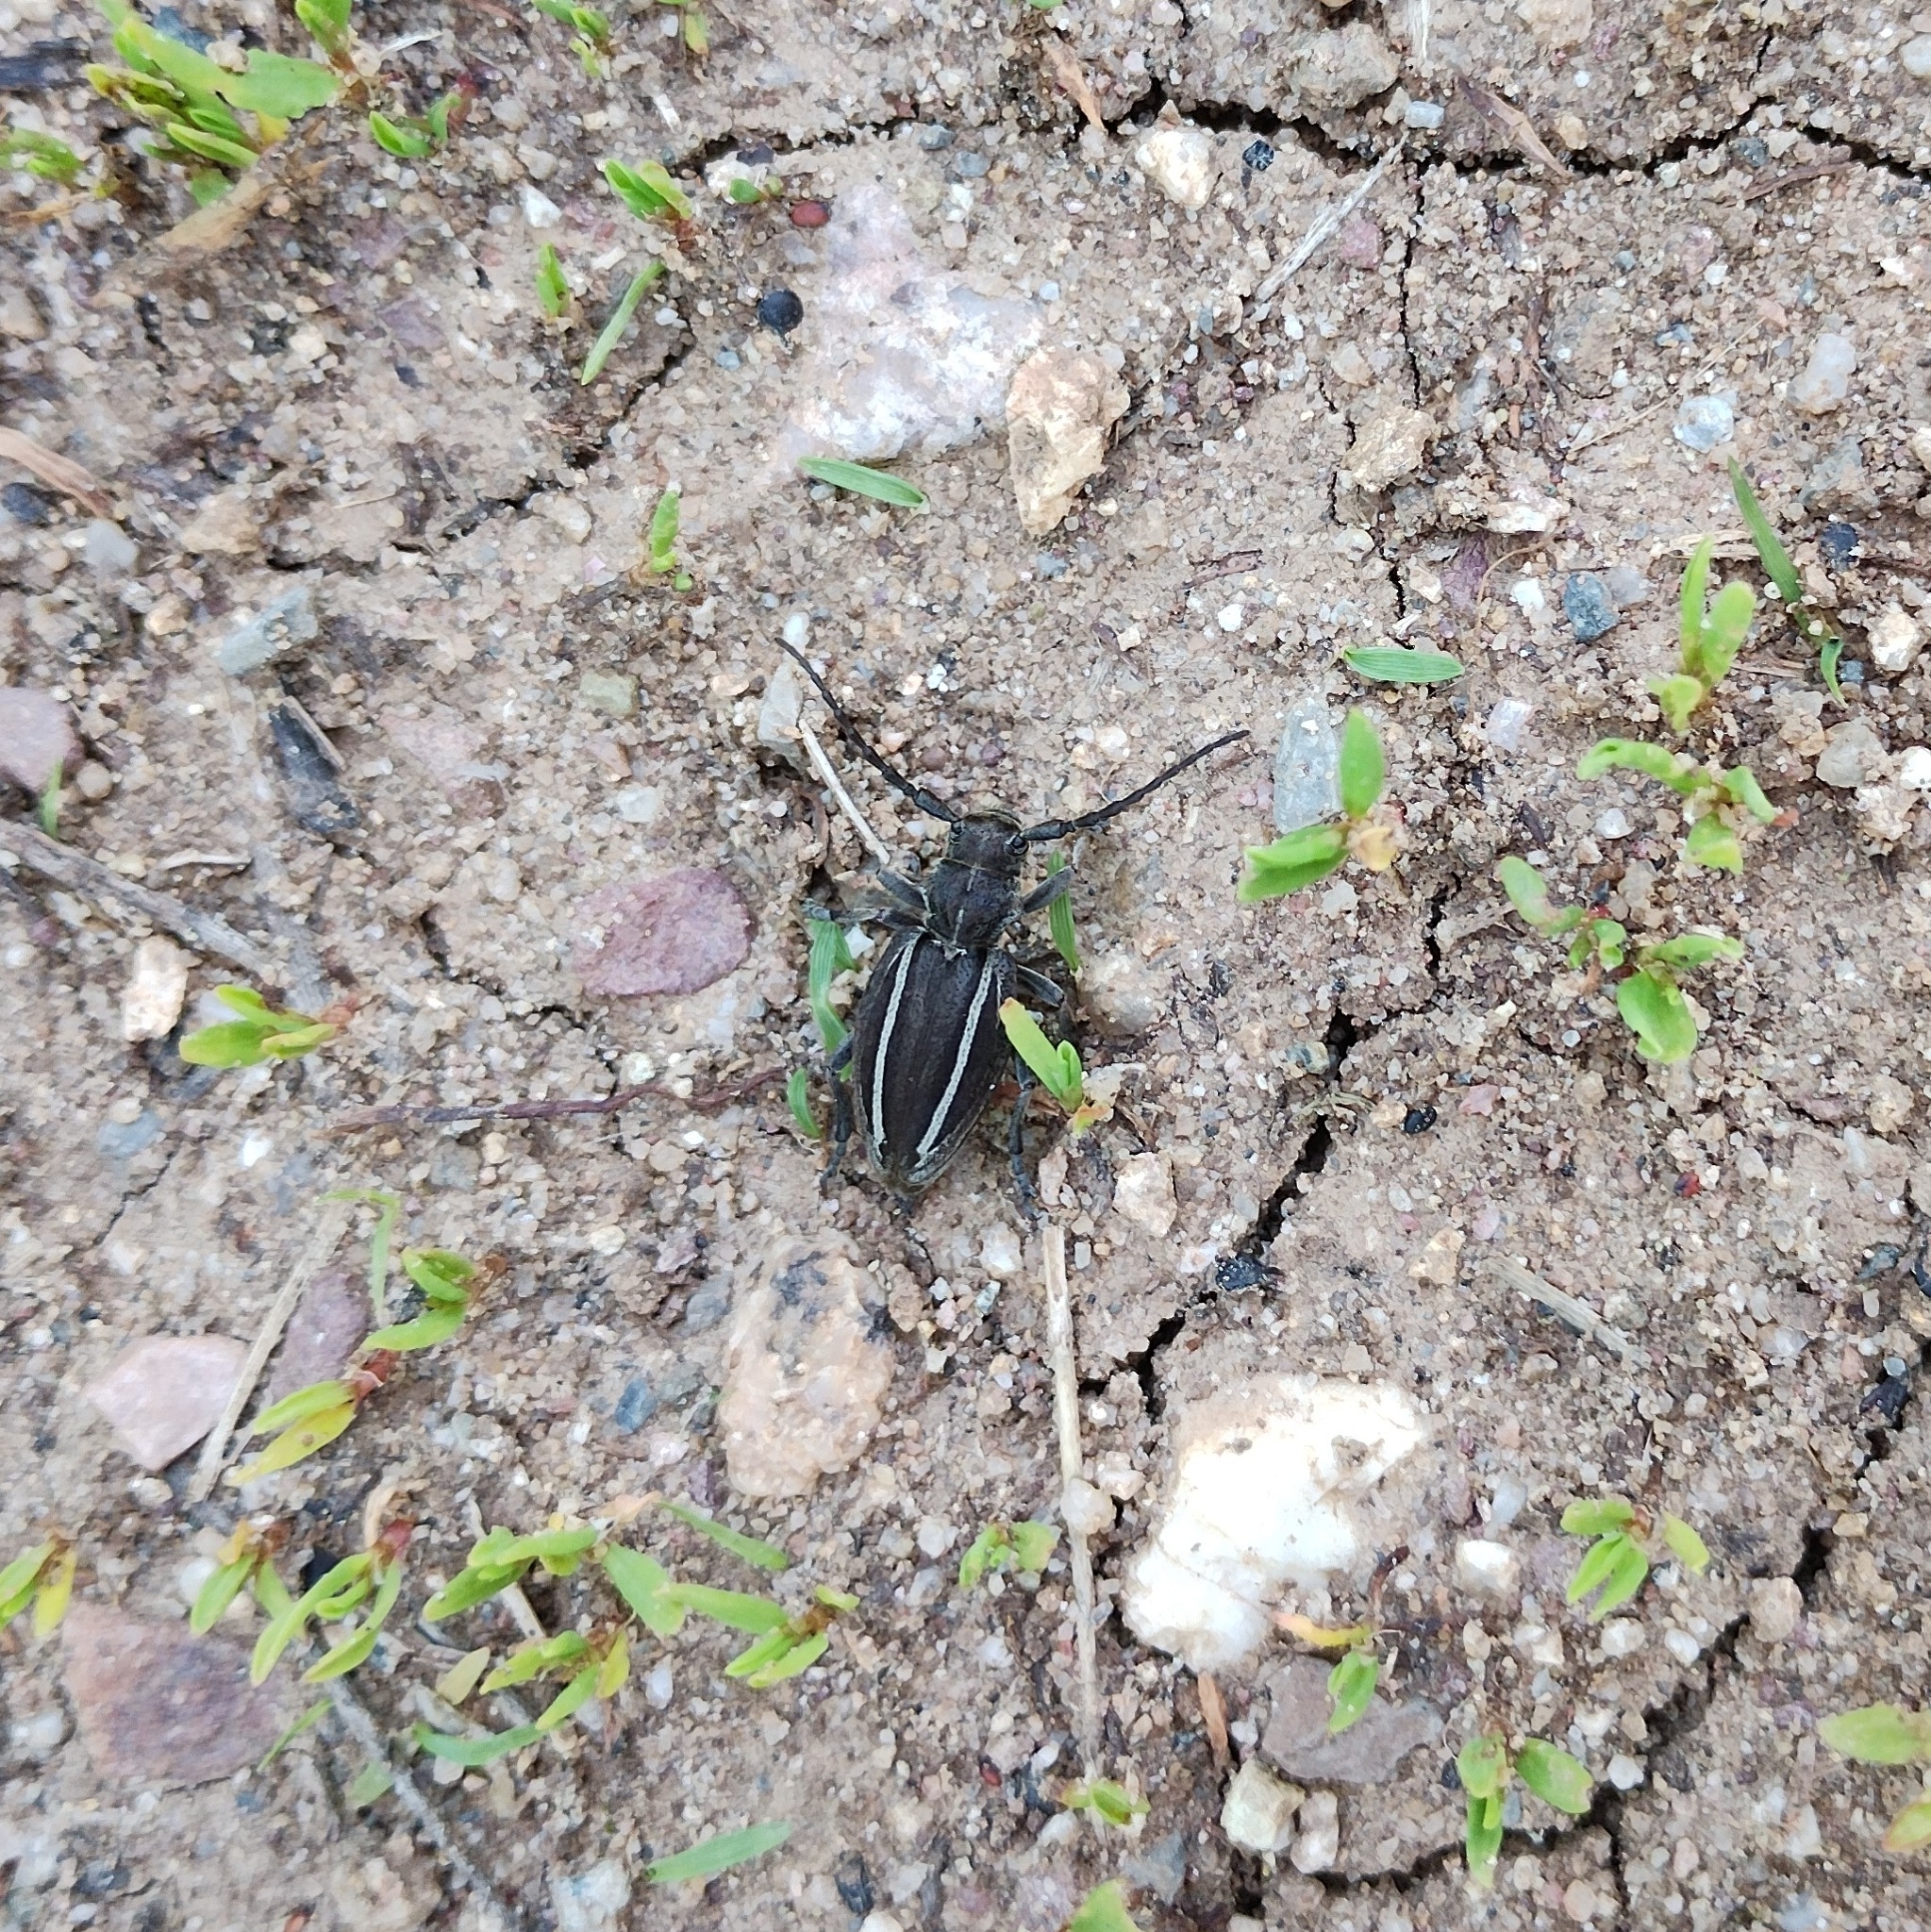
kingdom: Animalia
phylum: Arthropoda
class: Insecta
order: Coleoptera
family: Cerambycidae
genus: Neodorcadion
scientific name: Neodorcadion bilineatum
